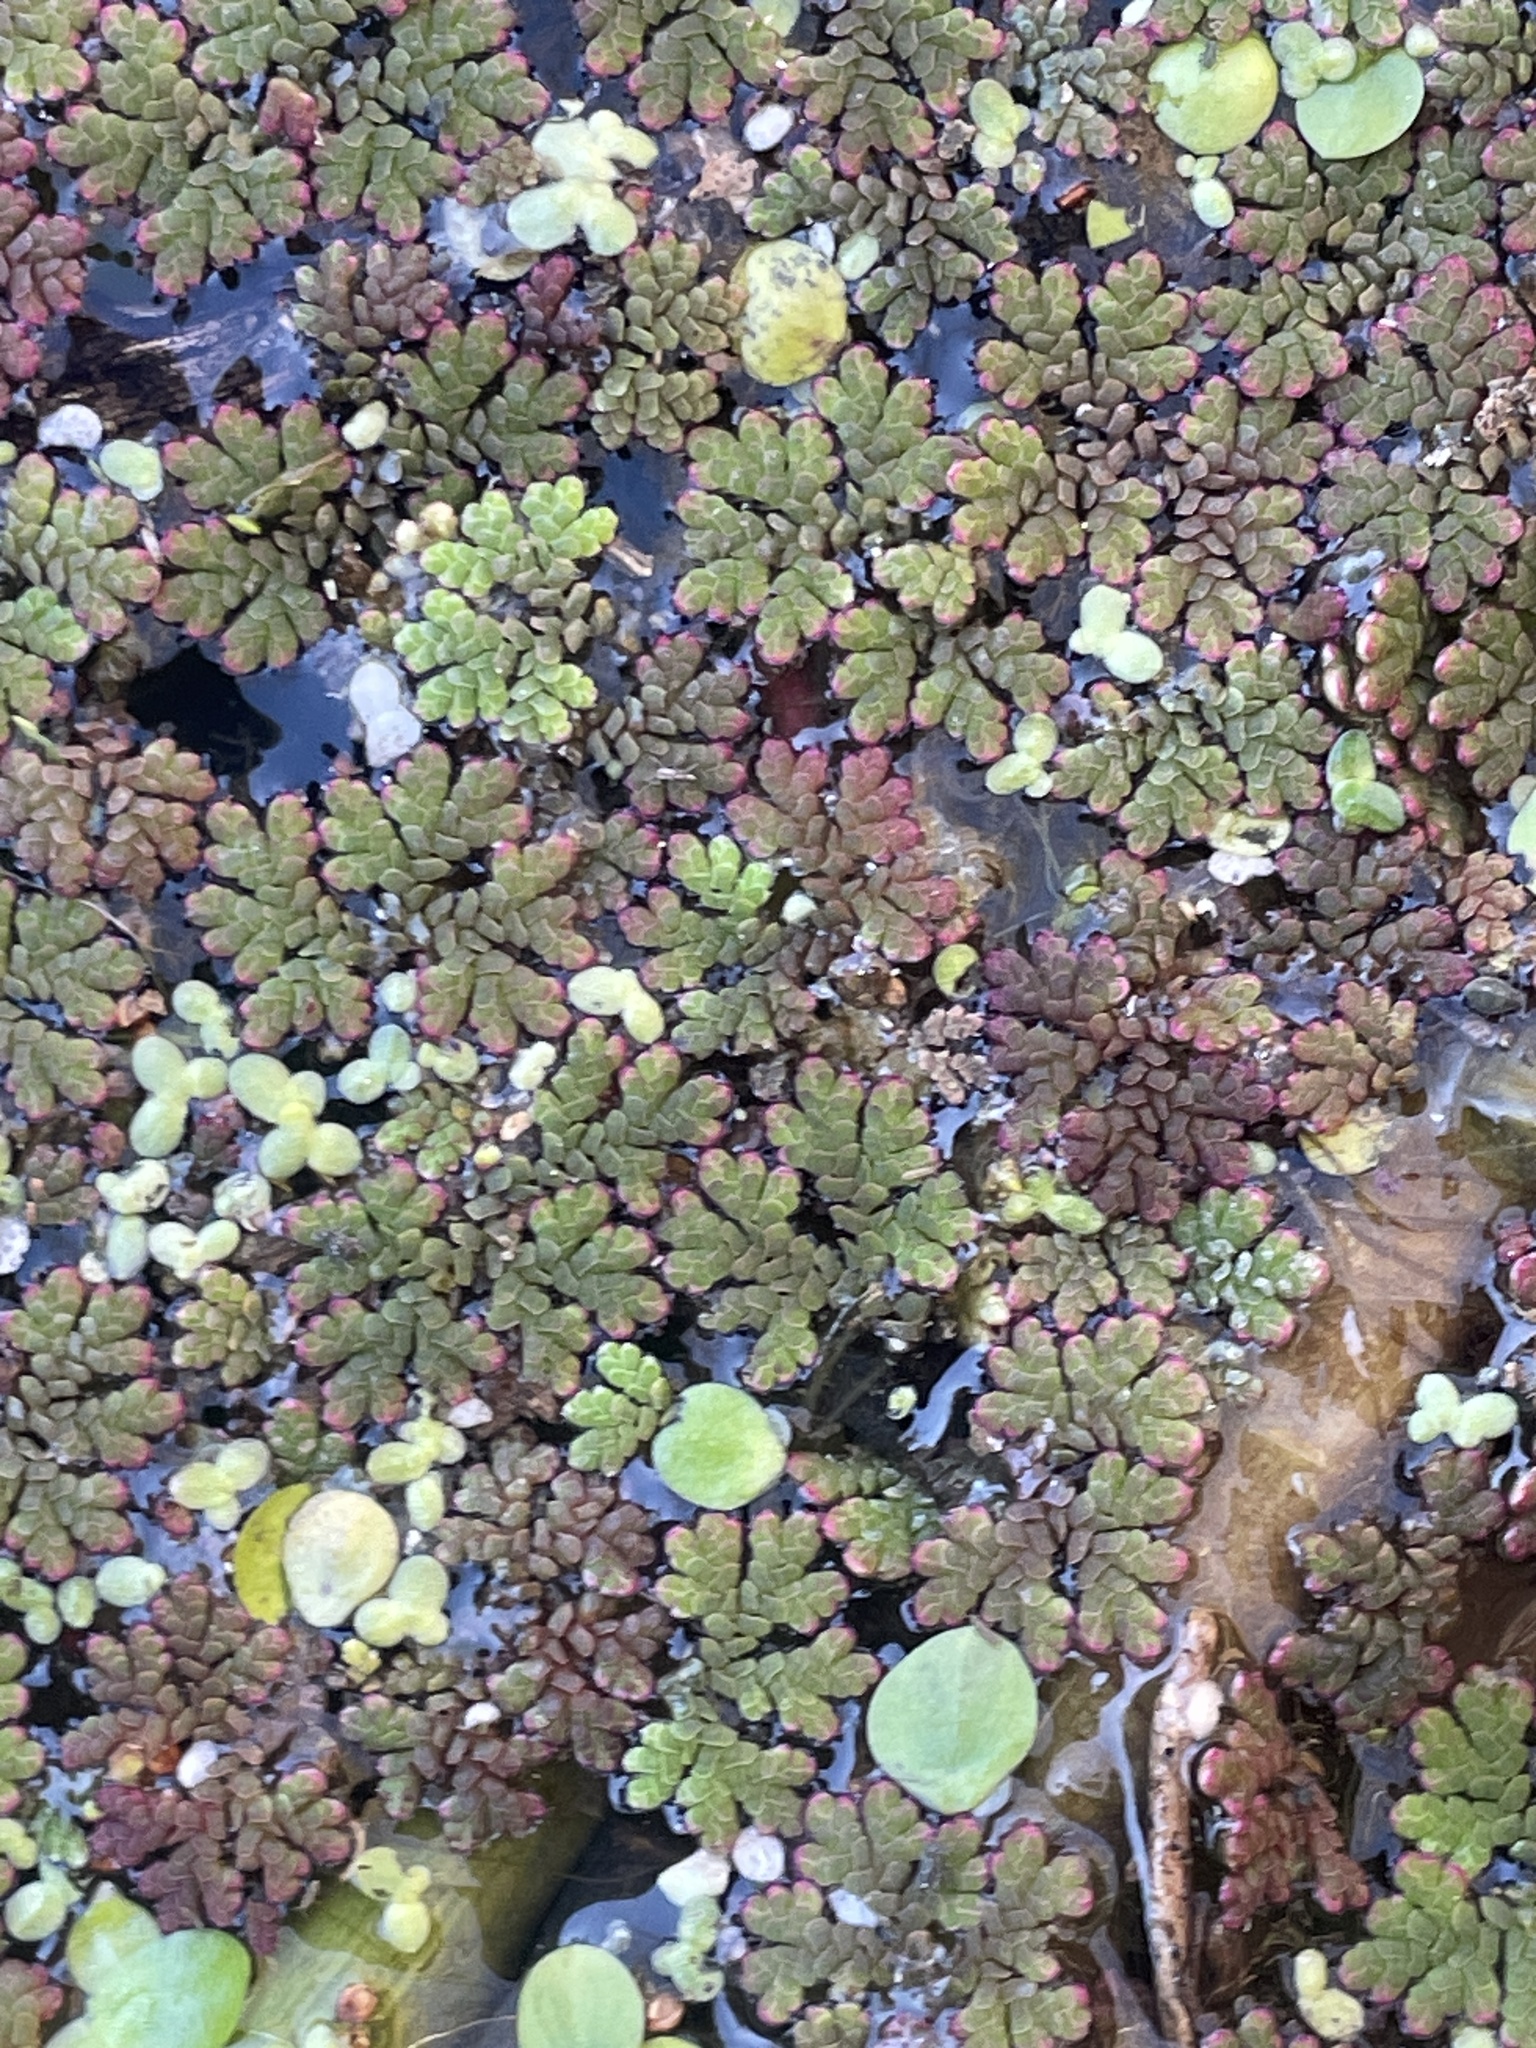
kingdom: Plantae
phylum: Tracheophyta
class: Polypodiopsida
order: Salviniales
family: Salviniaceae
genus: Azolla
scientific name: Azolla caroliniana
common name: Carolina mosquitofern
